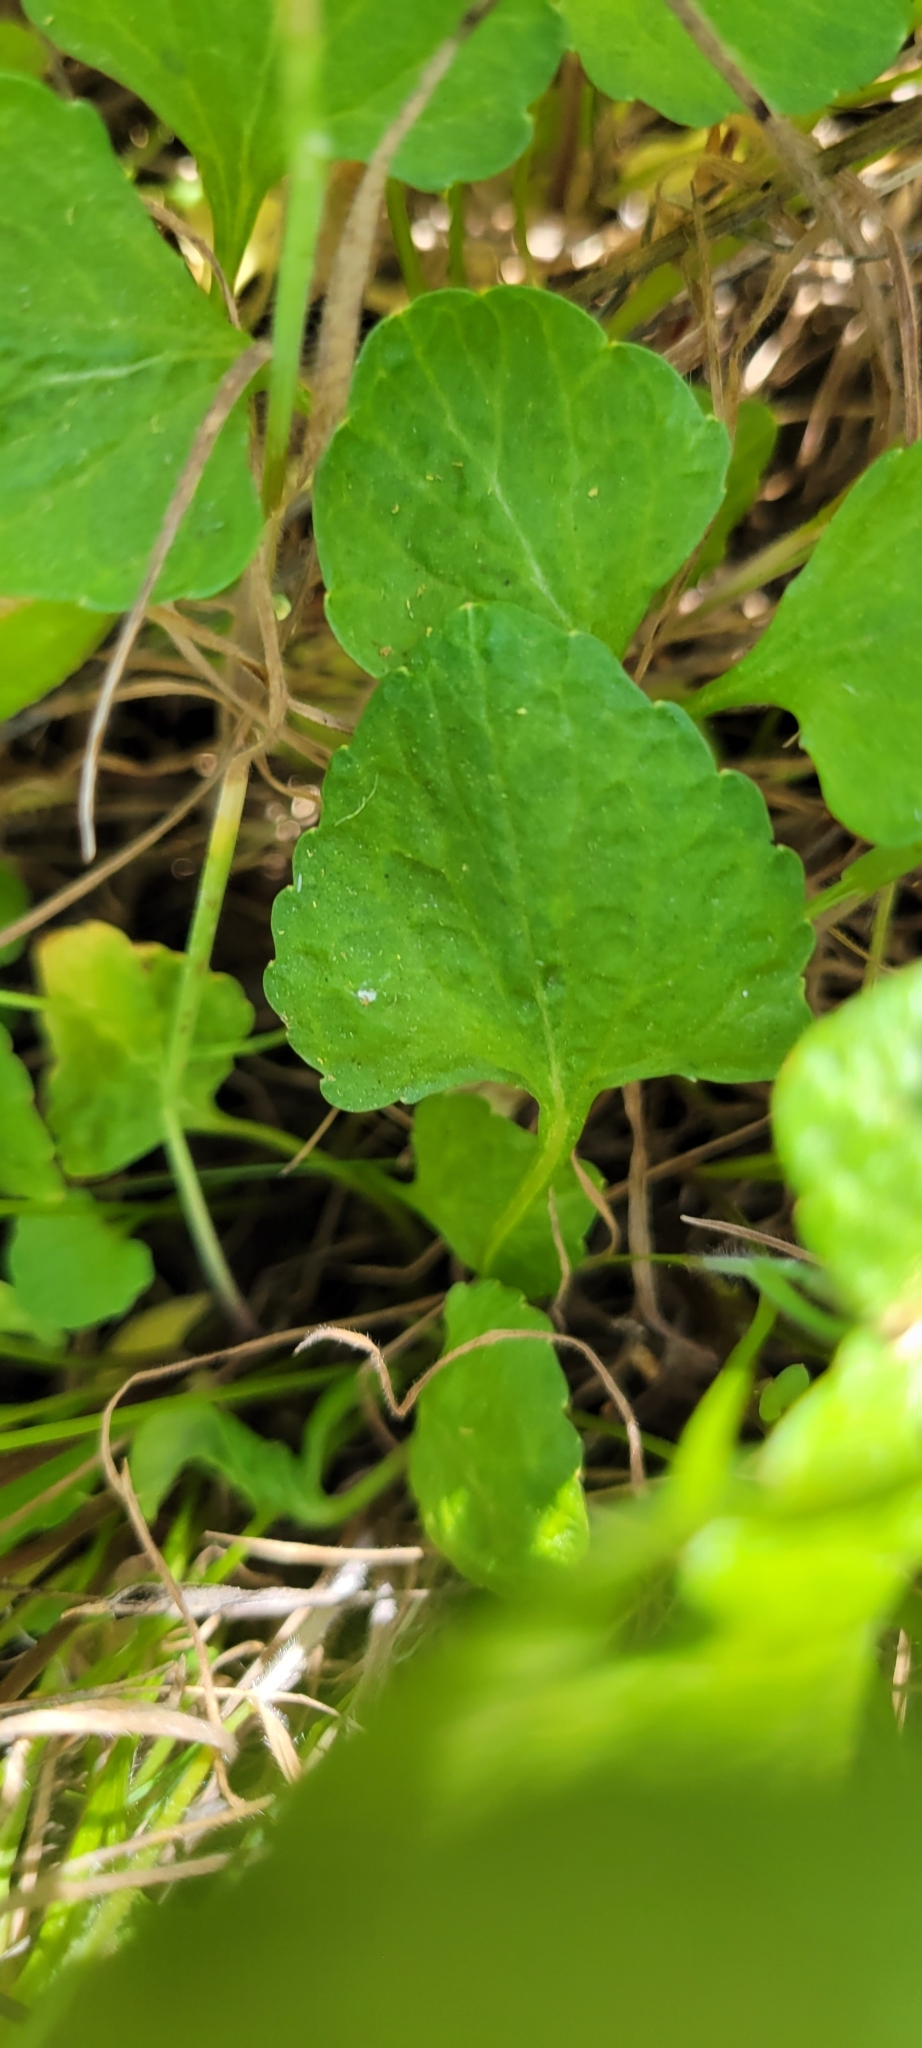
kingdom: Plantae
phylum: Tracheophyta
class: Magnoliopsida
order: Malpighiales
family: Violaceae
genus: Viola
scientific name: Viola pedunculata
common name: California golden violet
